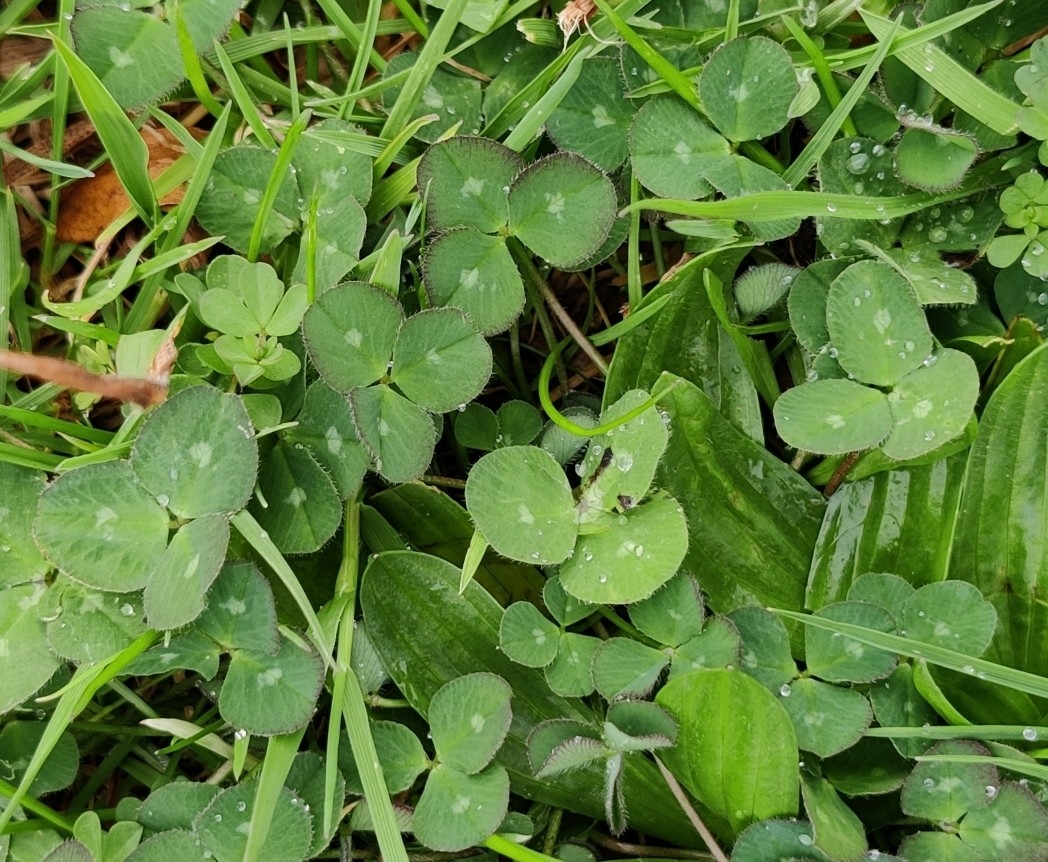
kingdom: Plantae
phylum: Tracheophyta
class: Magnoliopsida
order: Fabales
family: Fabaceae
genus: Trifolium
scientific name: Trifolium subterraneum
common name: Subterranean clover
